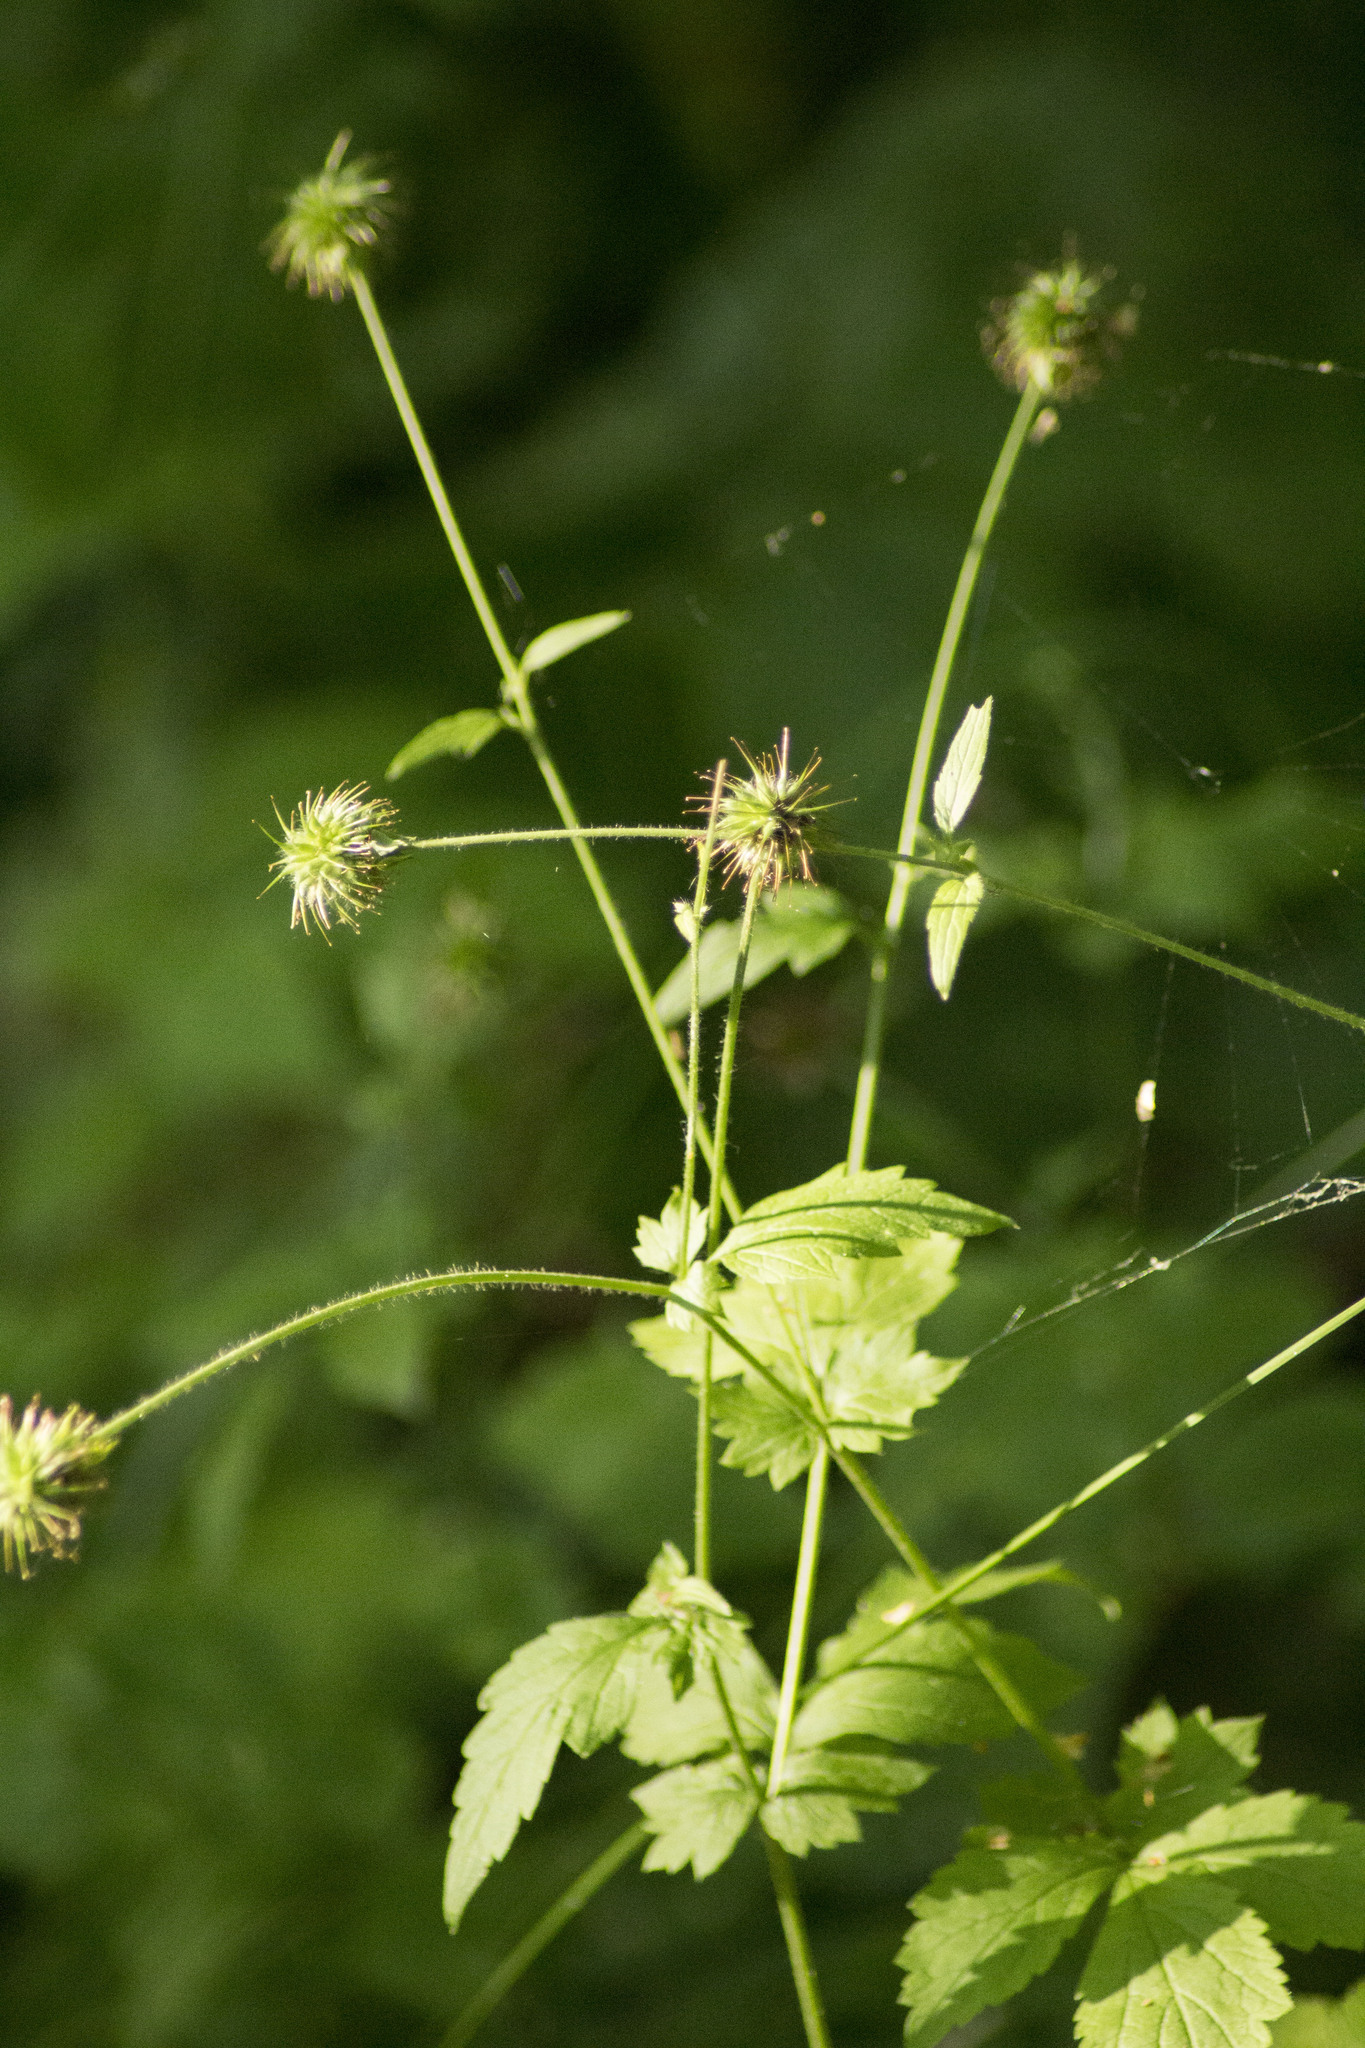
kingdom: Plantae
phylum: Tracheophyta
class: Magnoliopsida
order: Rosales
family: Rosaceae
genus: Geum
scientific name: Geum urbanum
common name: Wood avens
